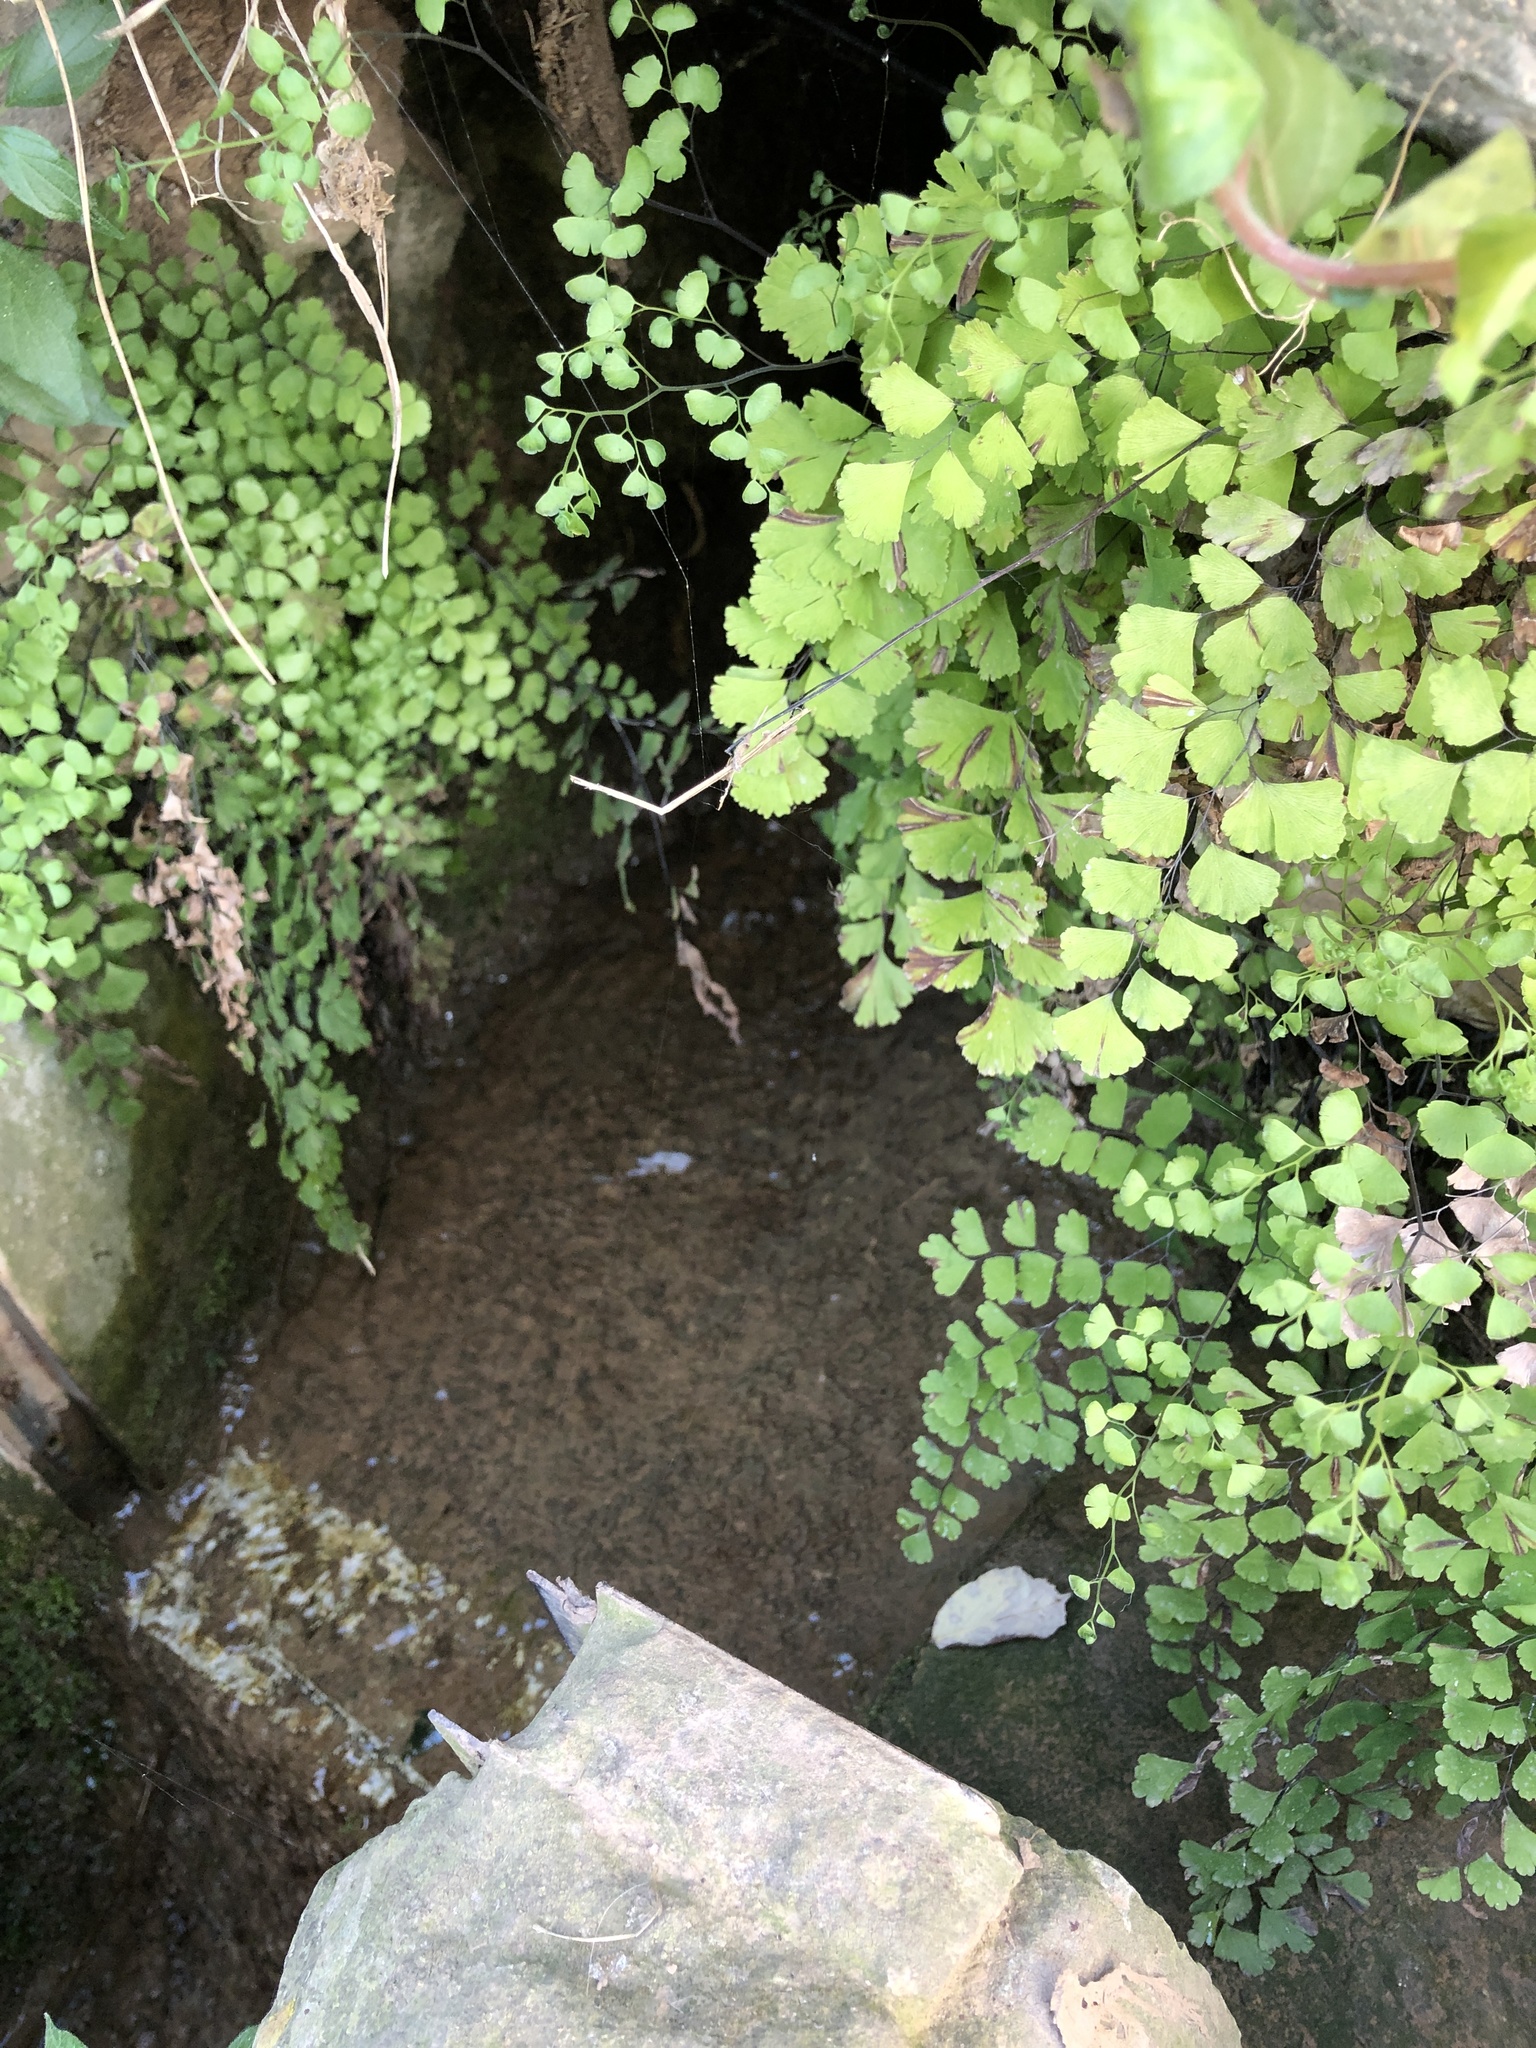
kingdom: Plantae
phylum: Tracheophyta
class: Polypodiopsida
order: Polypodiales
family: Pteridaceae
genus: Adiantum
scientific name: Adiantum capillus-veneris
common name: Maidenhair fern
